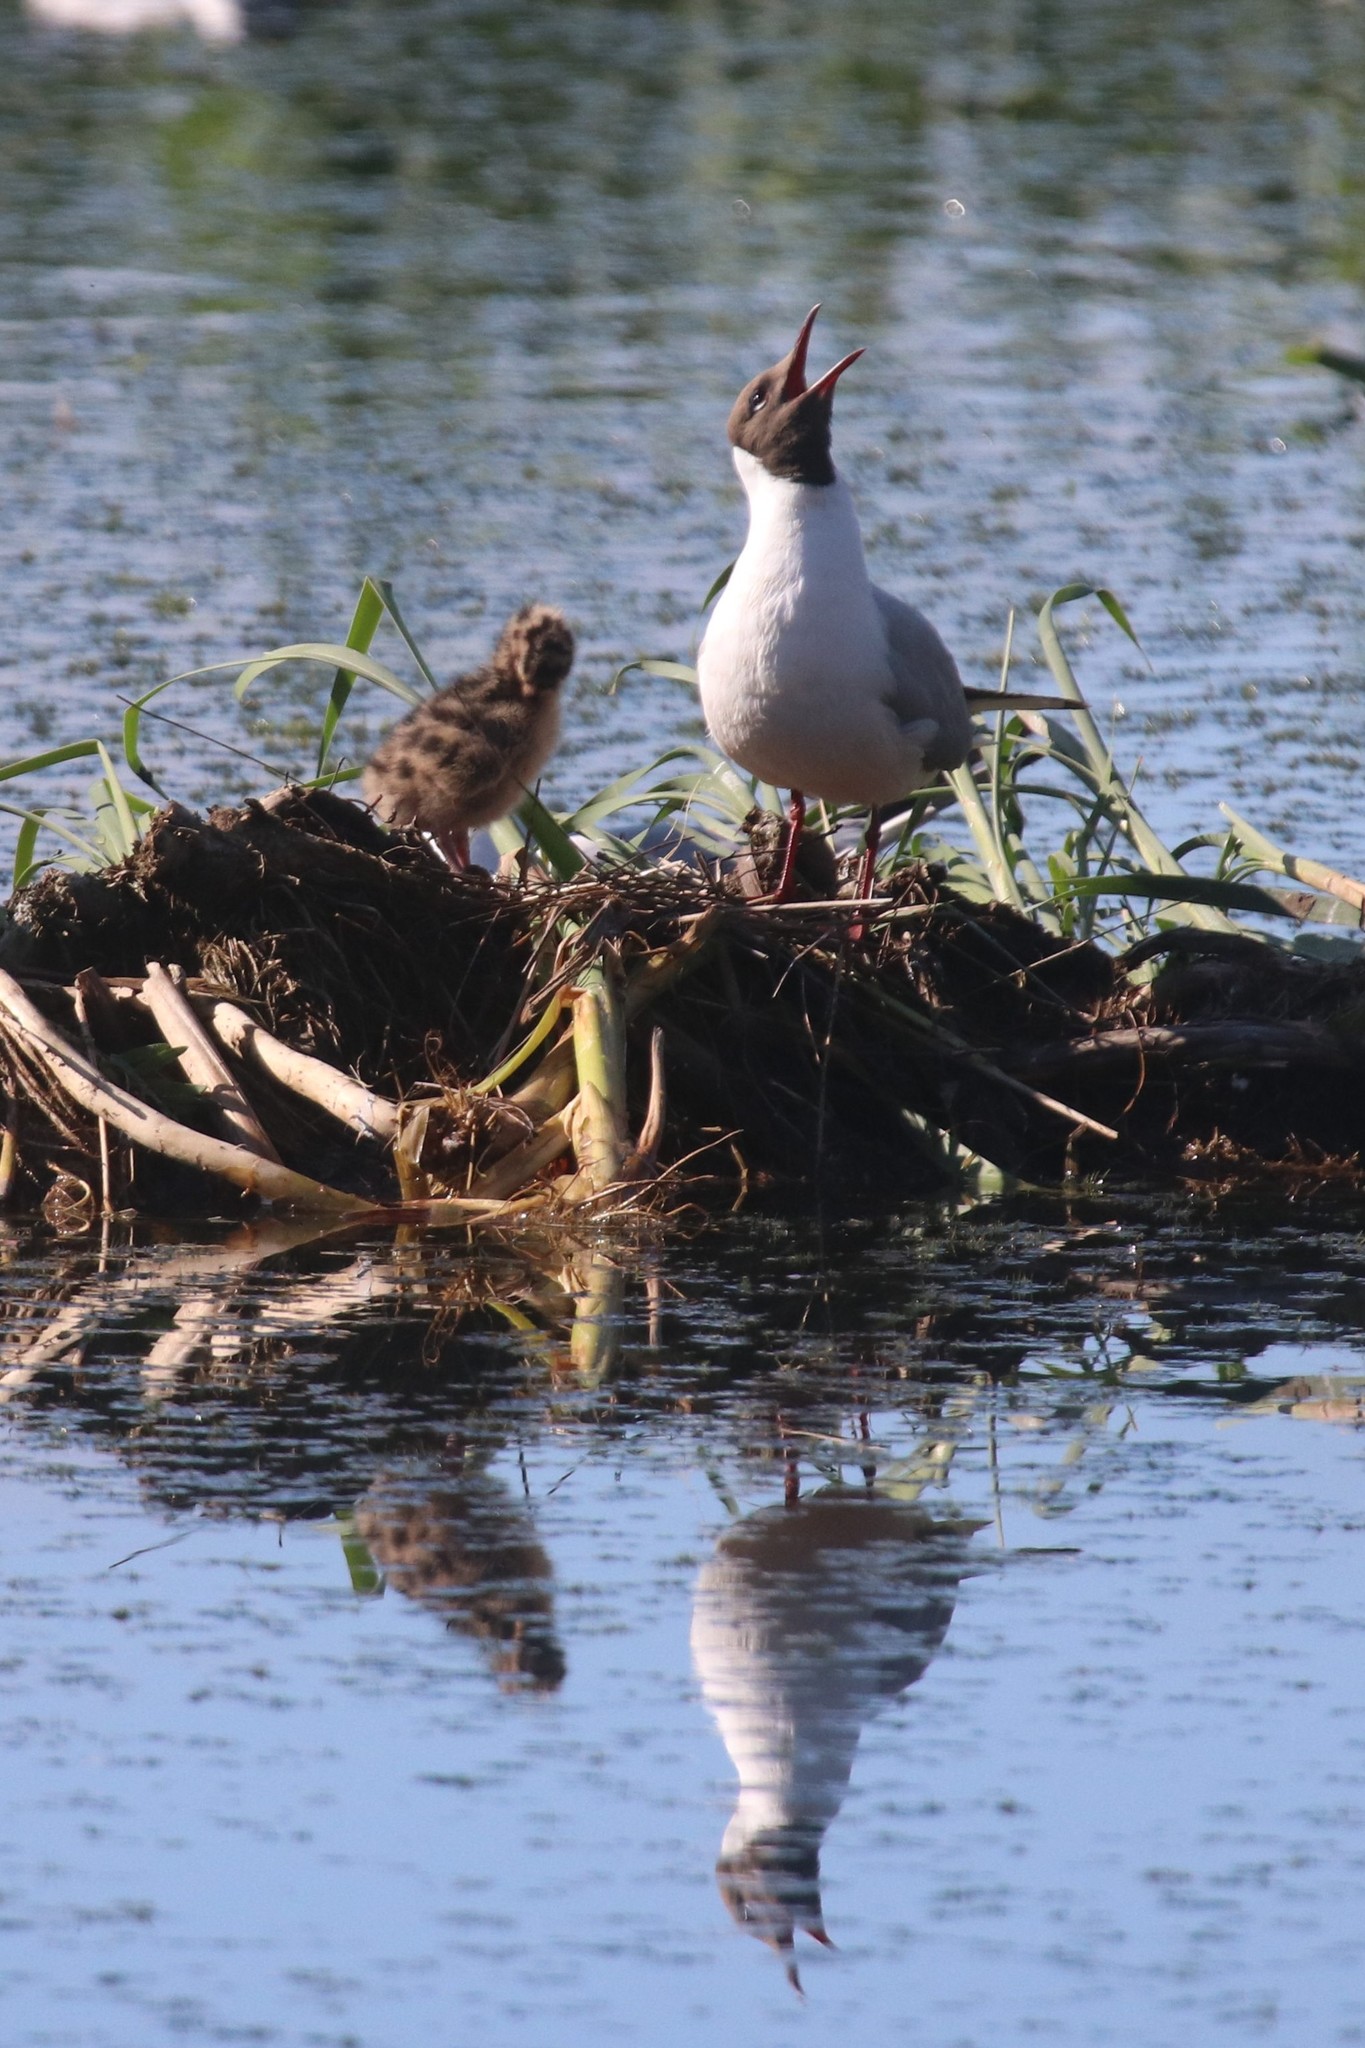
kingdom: Animalia
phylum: Chordata
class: Aves
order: Charadriiformes
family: Laridae
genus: Chroicocephalus
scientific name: Chroicocephalus ridibundus
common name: Black-headed gull
